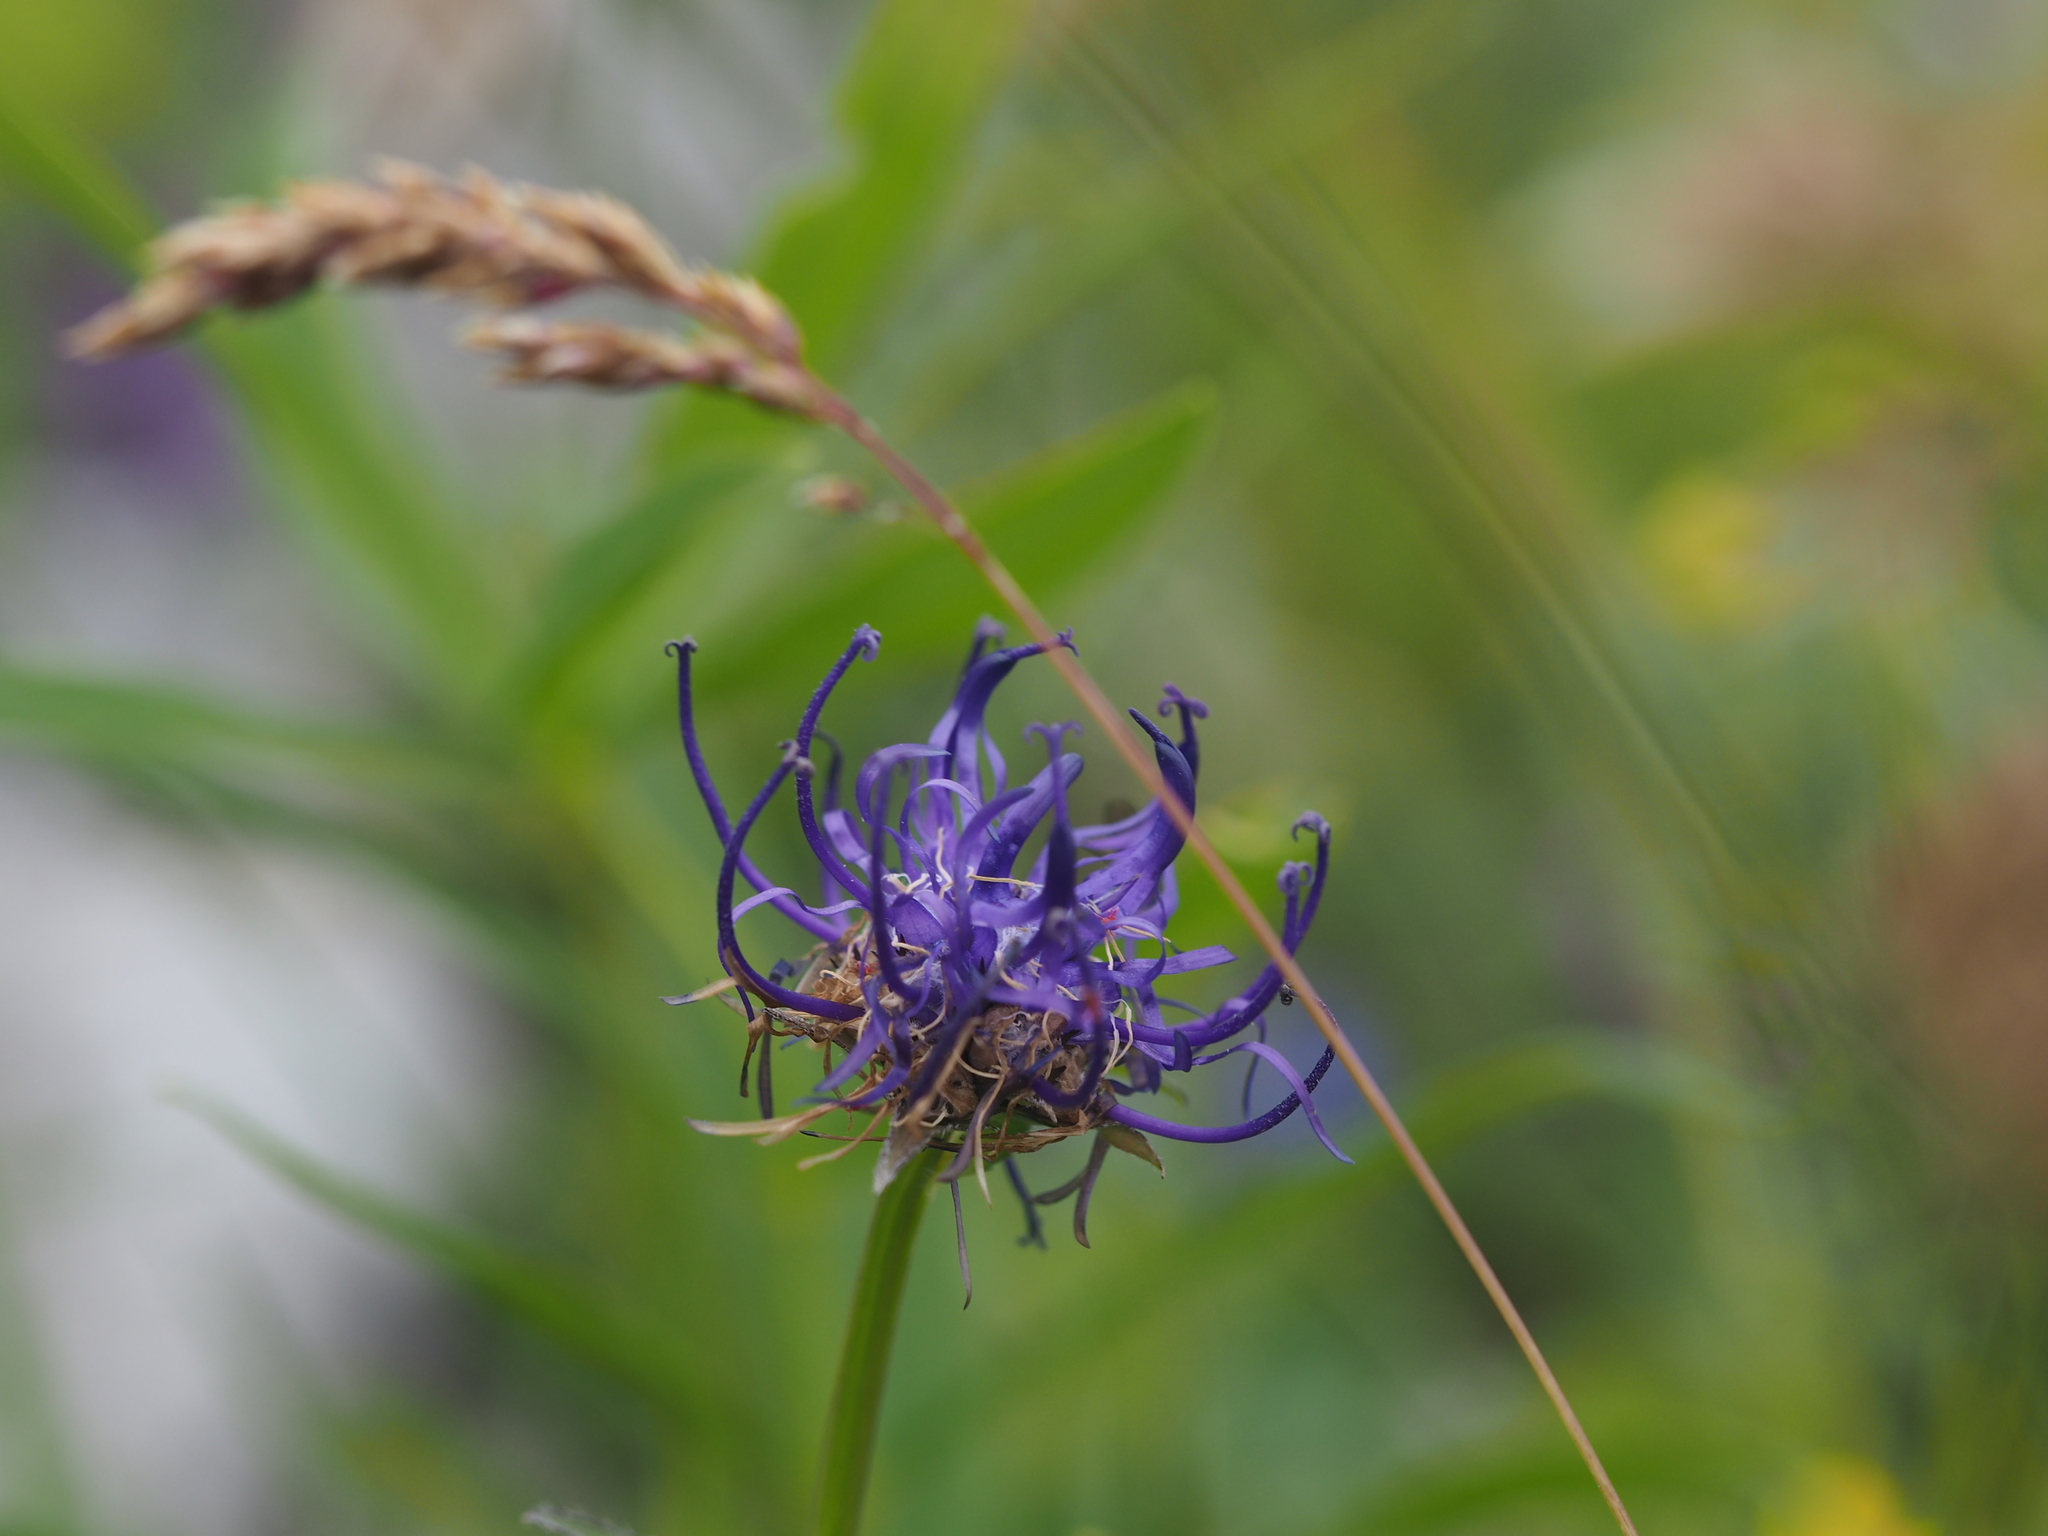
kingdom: Plantae
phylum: Tracheophyta
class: Magnoliopsida
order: Asterales
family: Campanulaceae
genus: Phyteuma
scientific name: Phyteuma orbiculare
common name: Round-headed rampion
